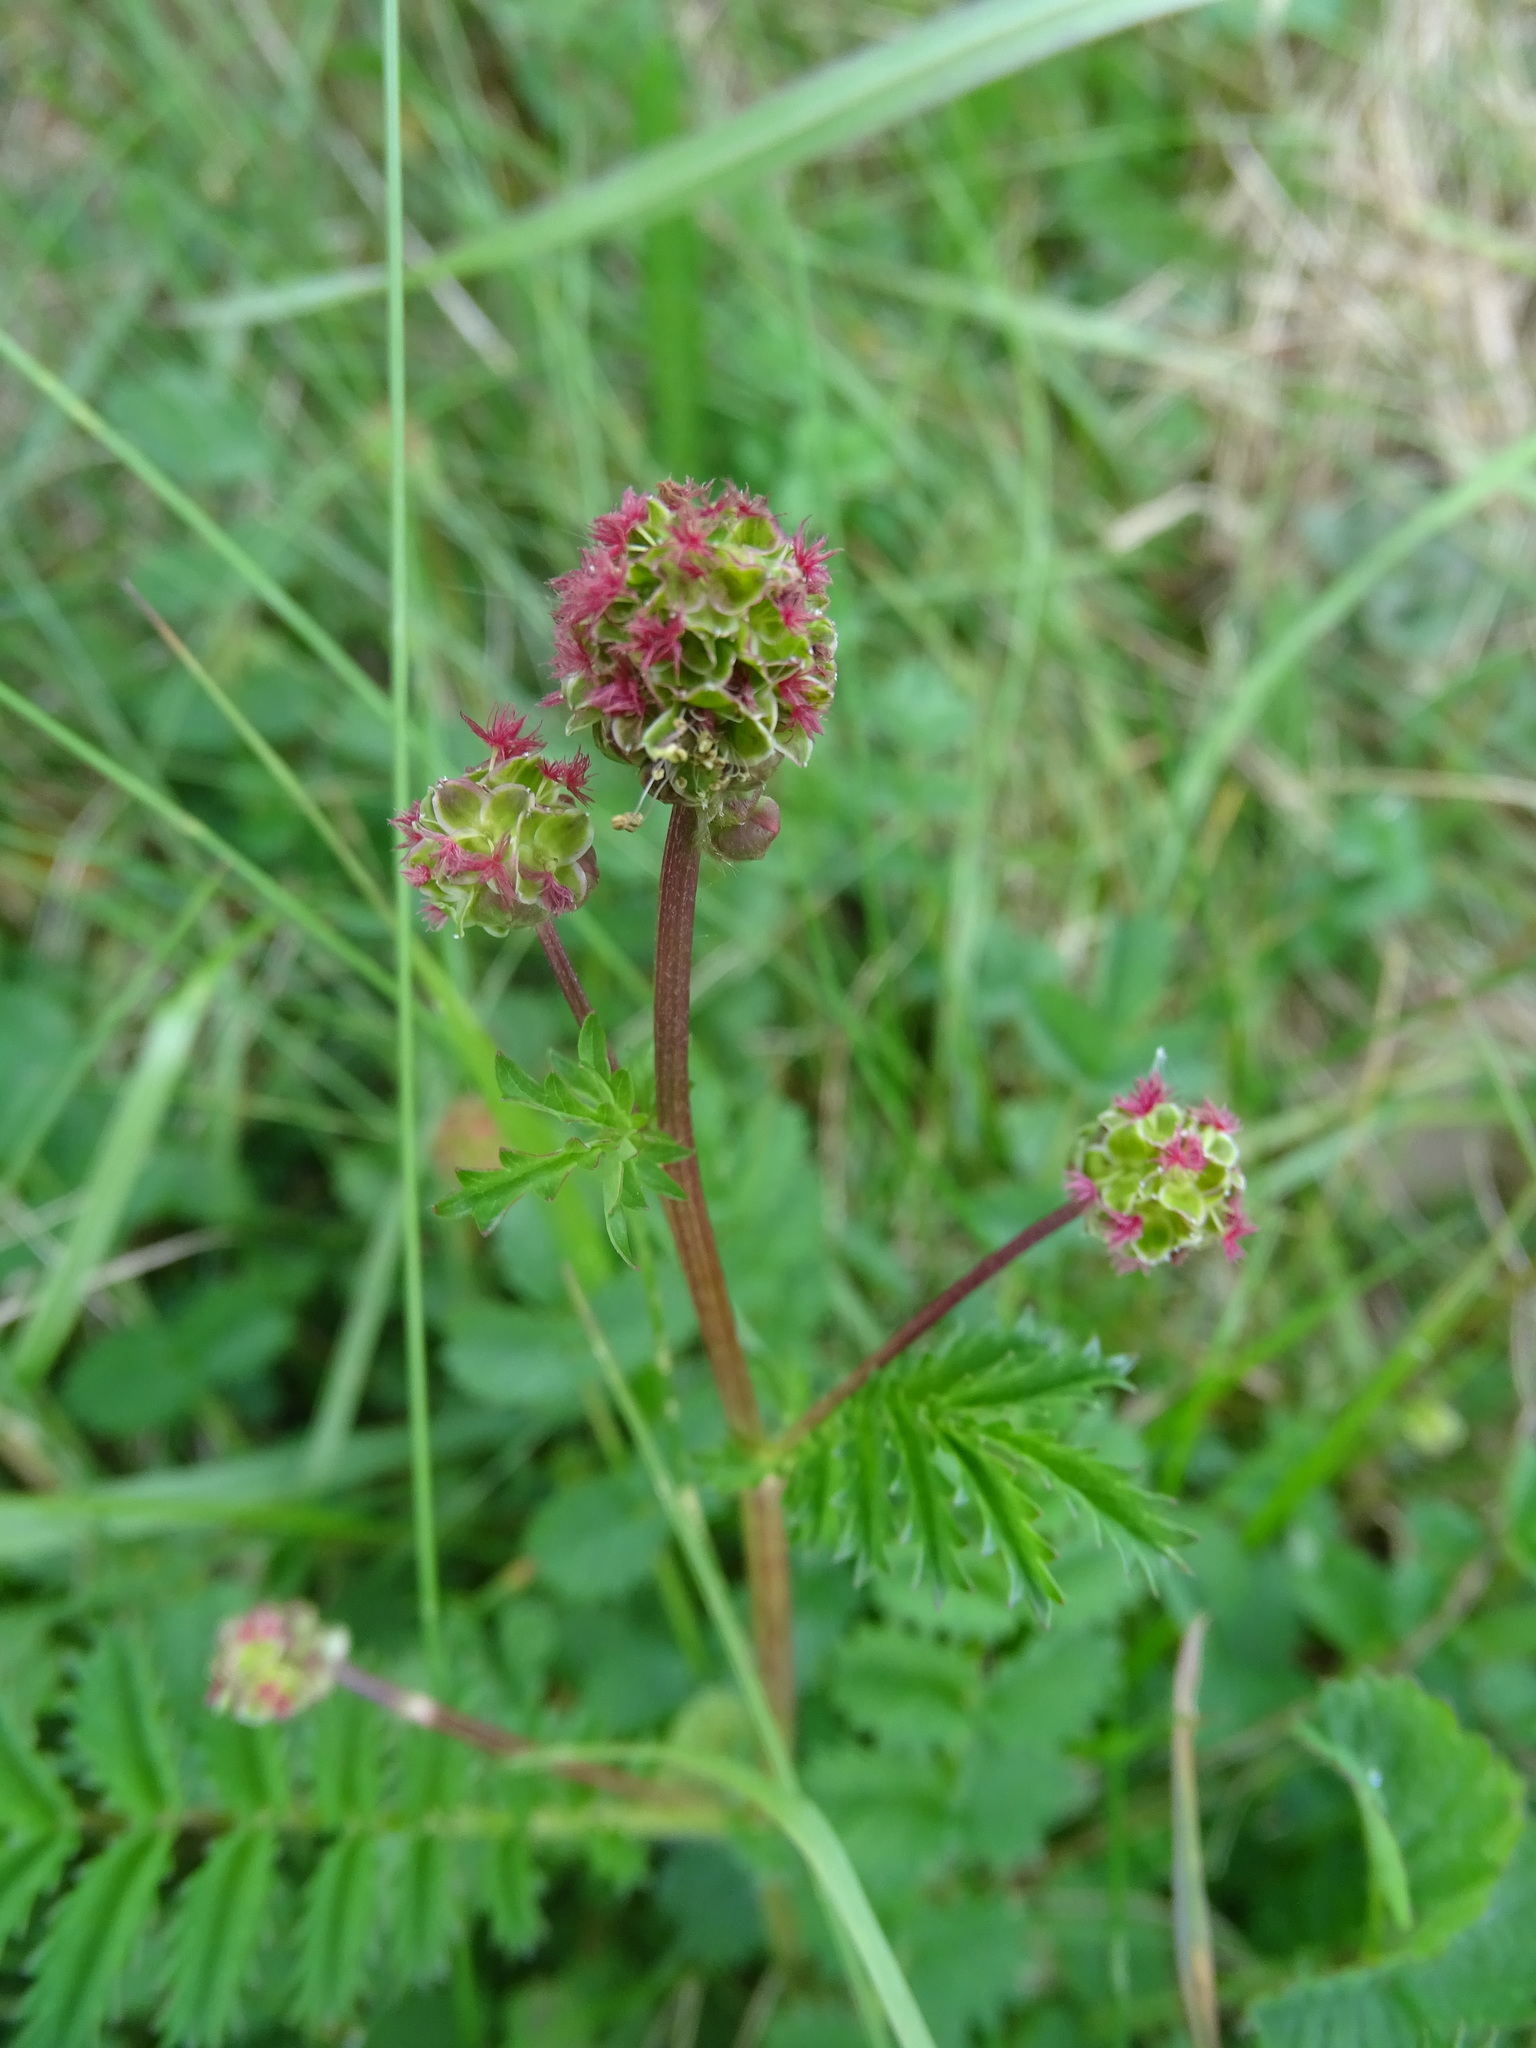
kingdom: Plantae
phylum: Tracheophyta
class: Magnoliopsida
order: Rosales
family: Rosaceae
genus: Poterium
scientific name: Poterium sanguisorba
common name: Salad burnet
